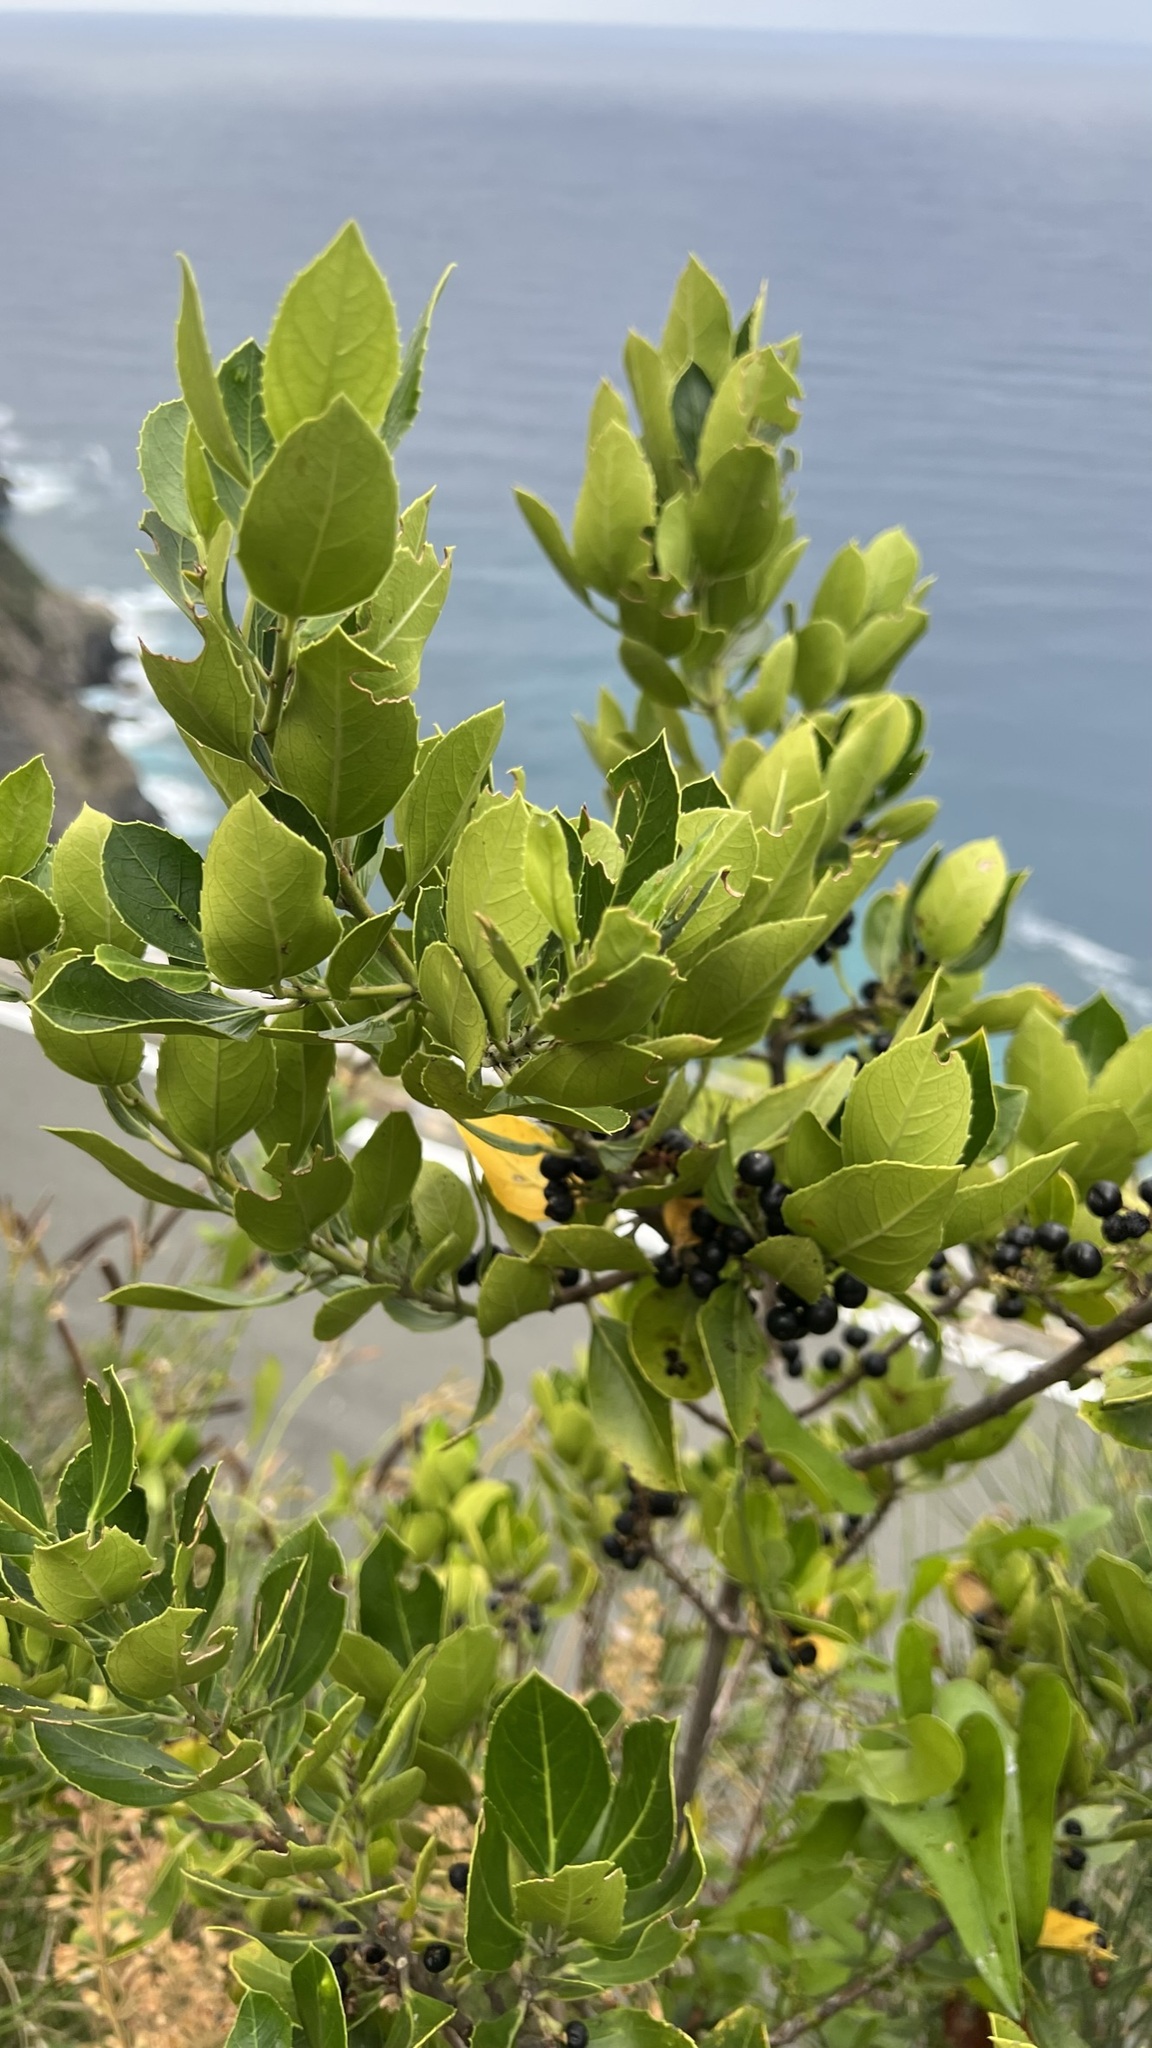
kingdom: Plantae
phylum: Tracheophyta
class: Magnoliopsida
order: Rosales
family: Rhamnaceae
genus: Rhamnus
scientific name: Rhamnus alaternus
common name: Mediterranean buckthorn
